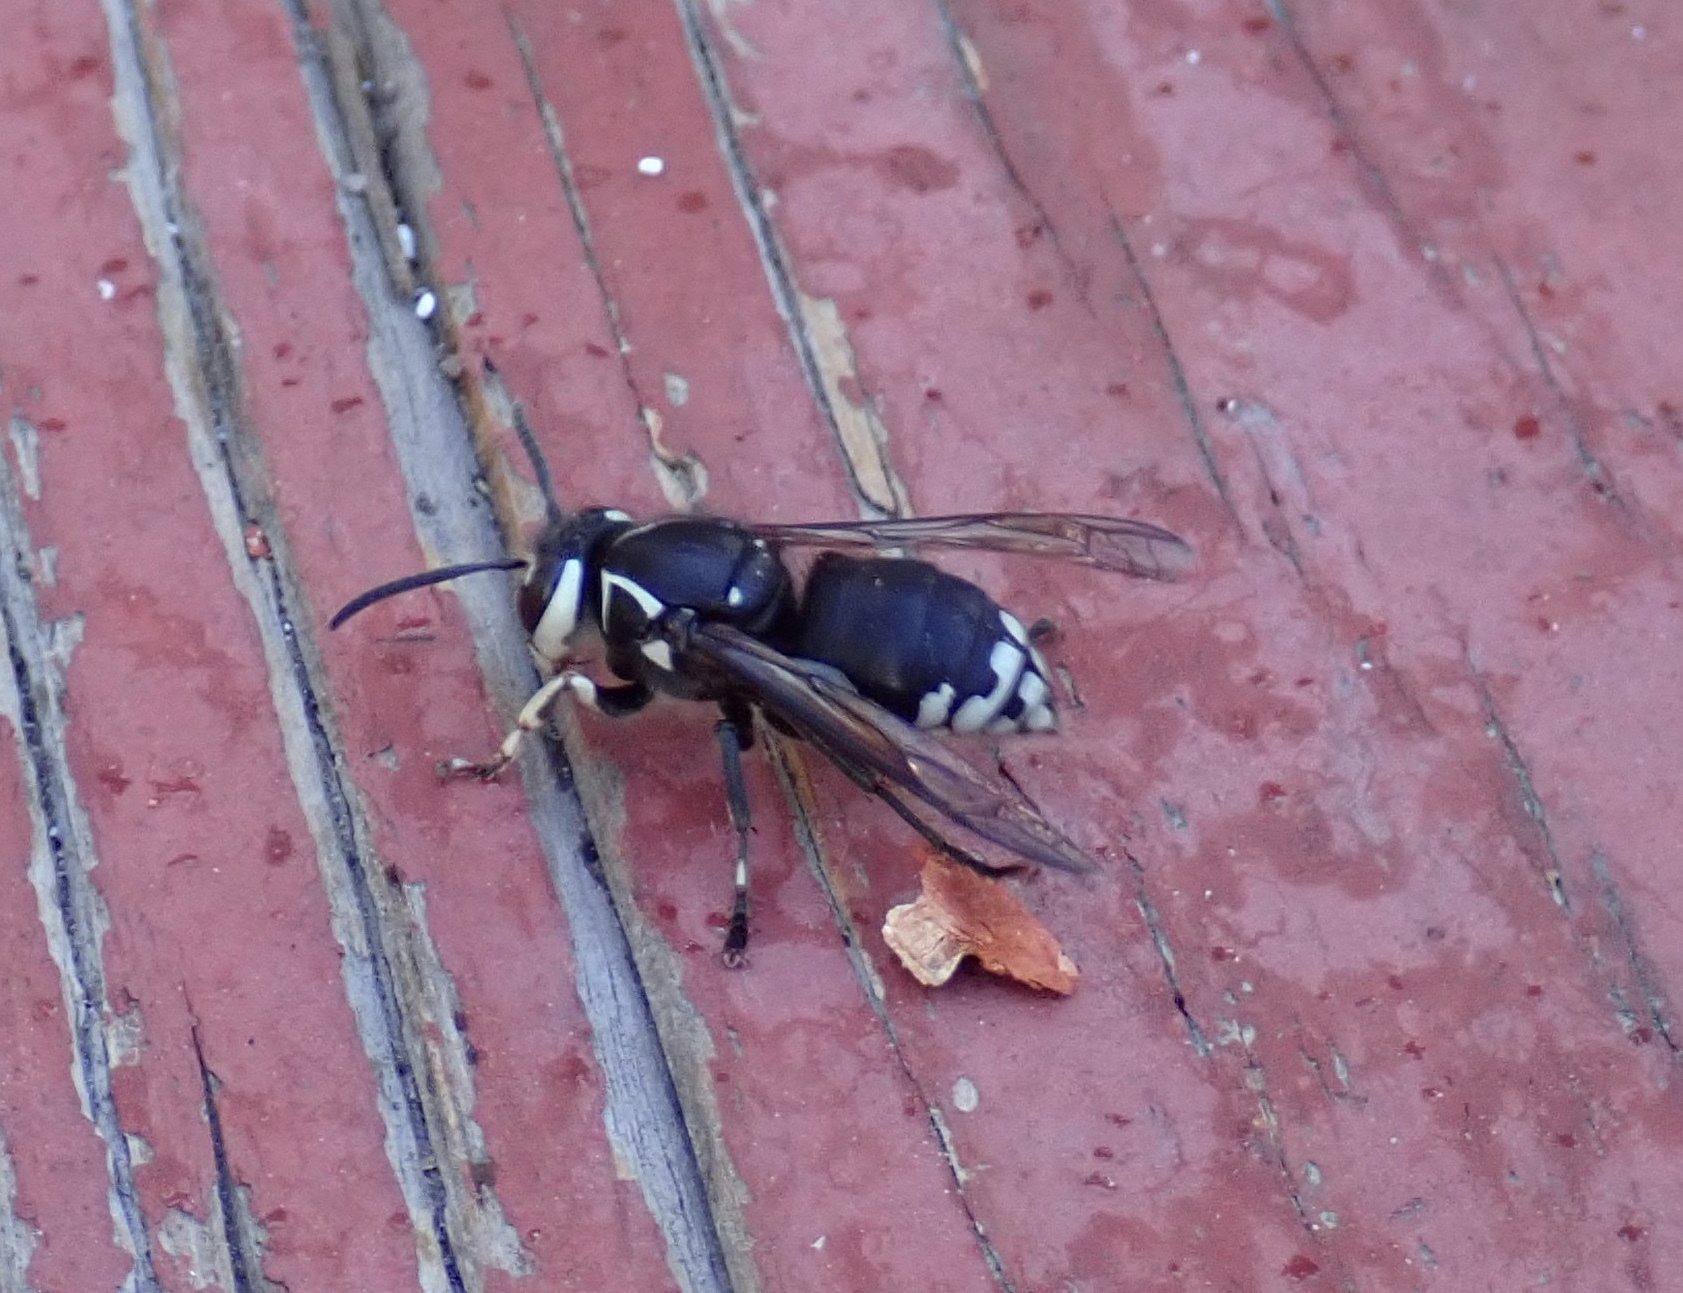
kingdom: Animalia
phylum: Arthropoda
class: Insecta
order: Hymenoptera
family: Vespidae
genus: Dolichovespula
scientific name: Dolichovespula maculata
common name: Bald-faced hornet
